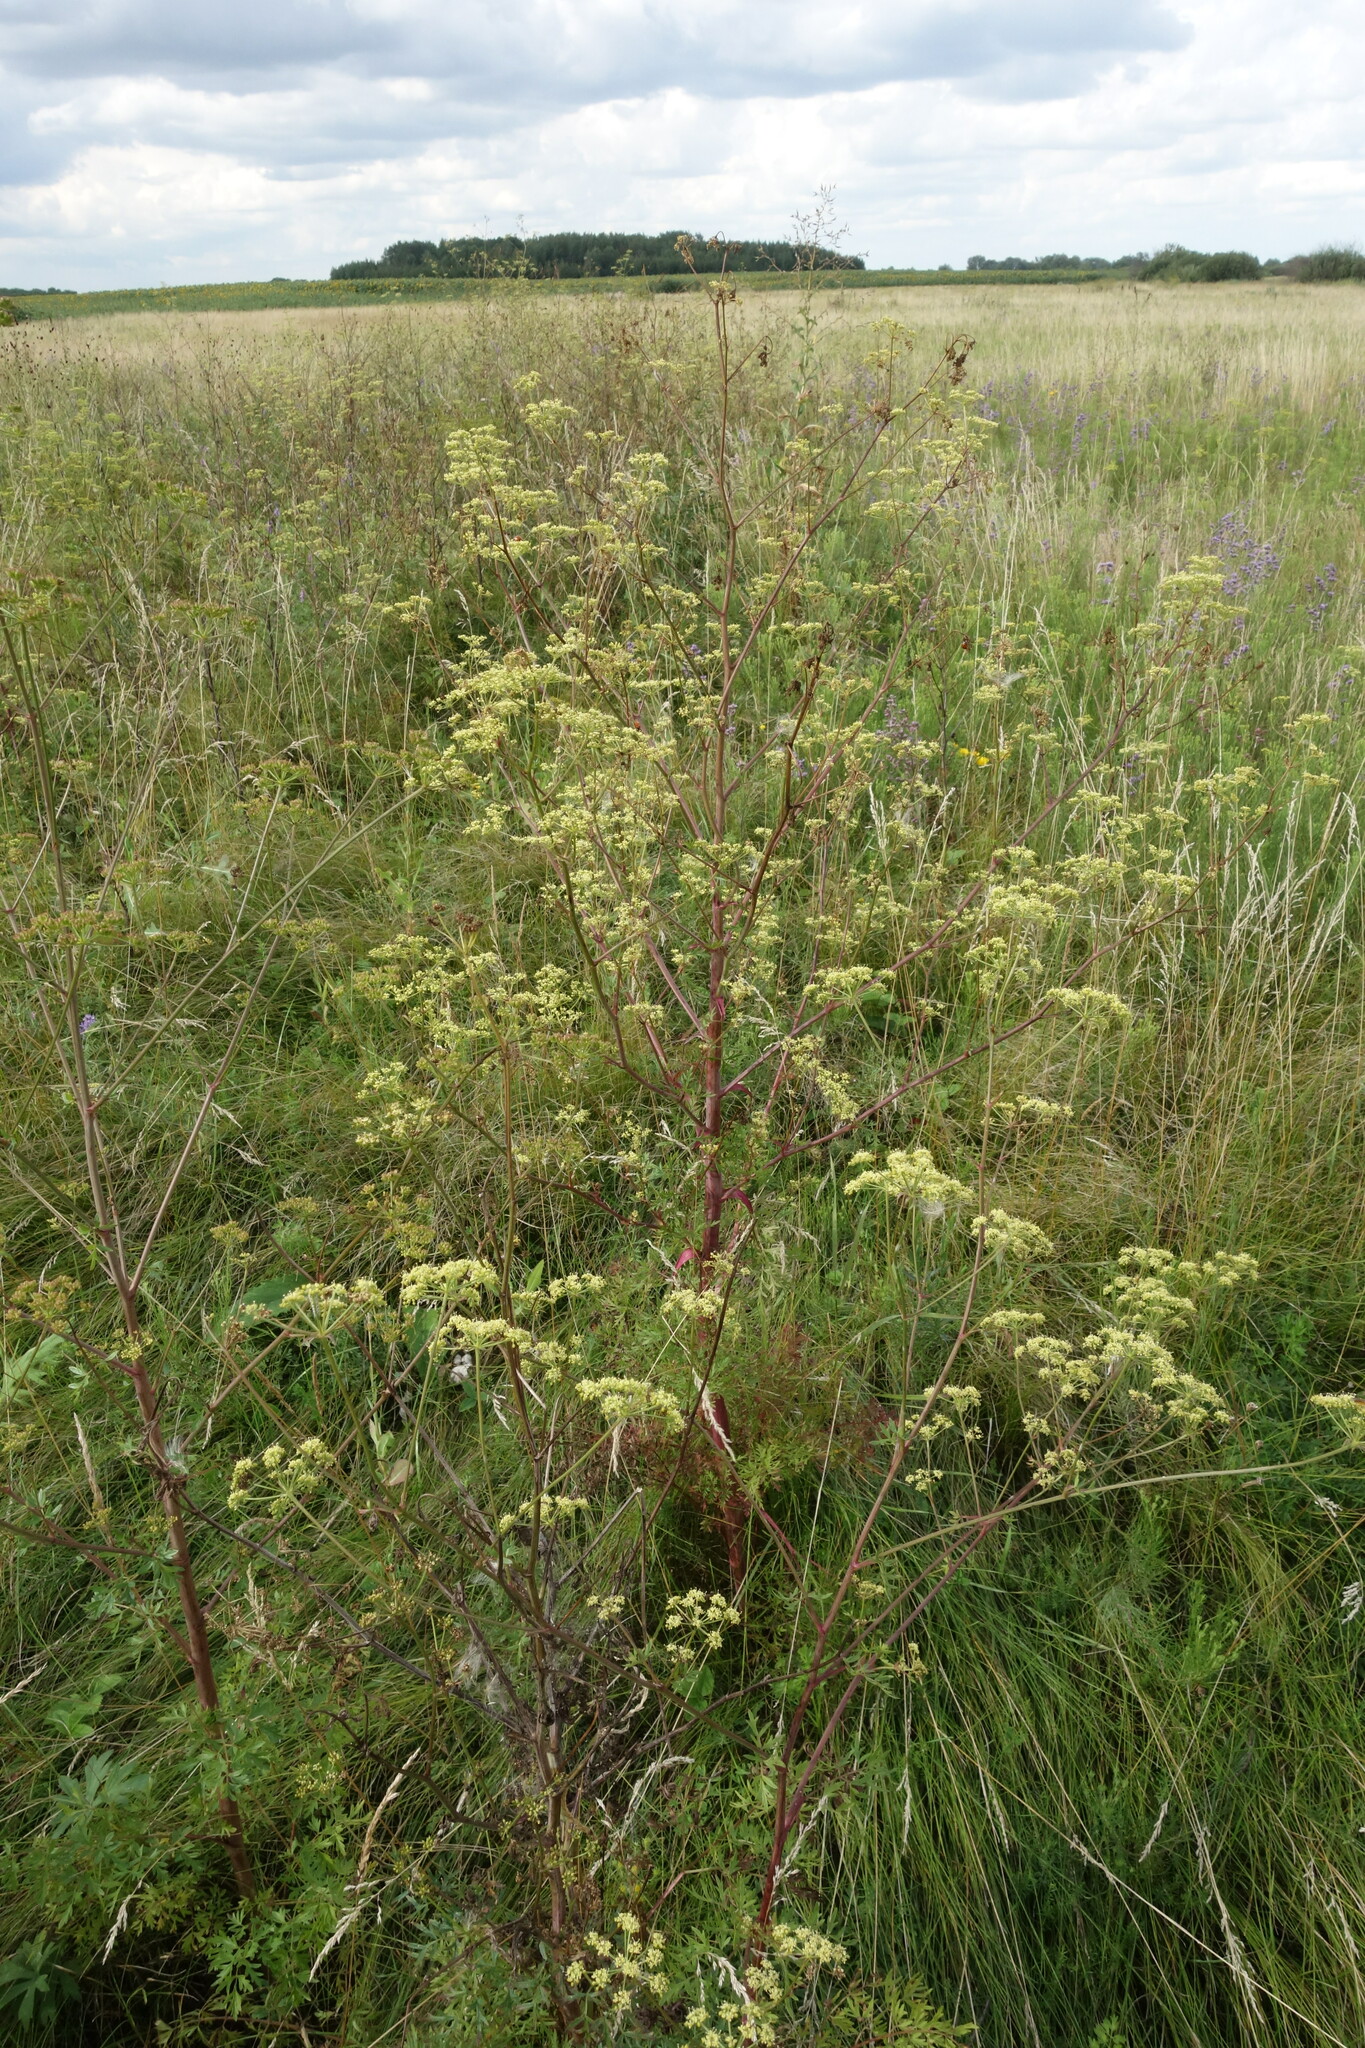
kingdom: Plantae
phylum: Tracheophyta
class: Magnoliopsida
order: Apiales
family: Apiaceae
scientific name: Apiaceae
